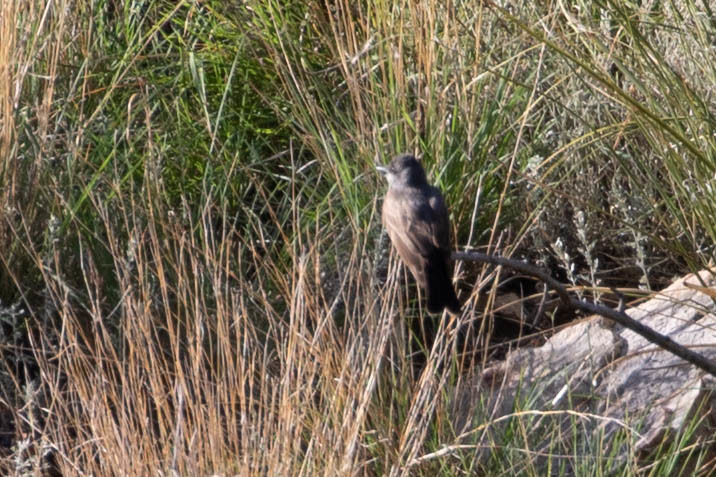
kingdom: Animalia
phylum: Chordata
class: Aves
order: Passeriformes
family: Tyrannidae
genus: Tyrannus
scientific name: Tyrannus vociferans
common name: Cassin's kingbird
